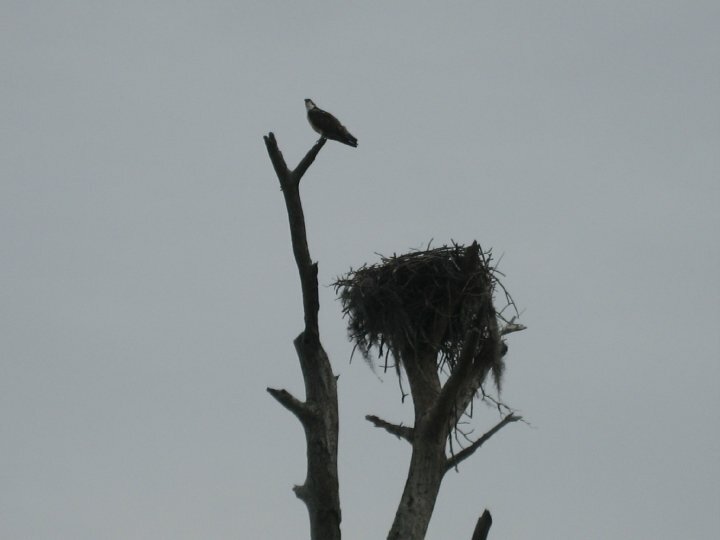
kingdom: Animalia
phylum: Chordata
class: Aves
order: Accipitriformes
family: Pandionidae
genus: Pandion
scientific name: Pandion haliaetus
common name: Osprey
